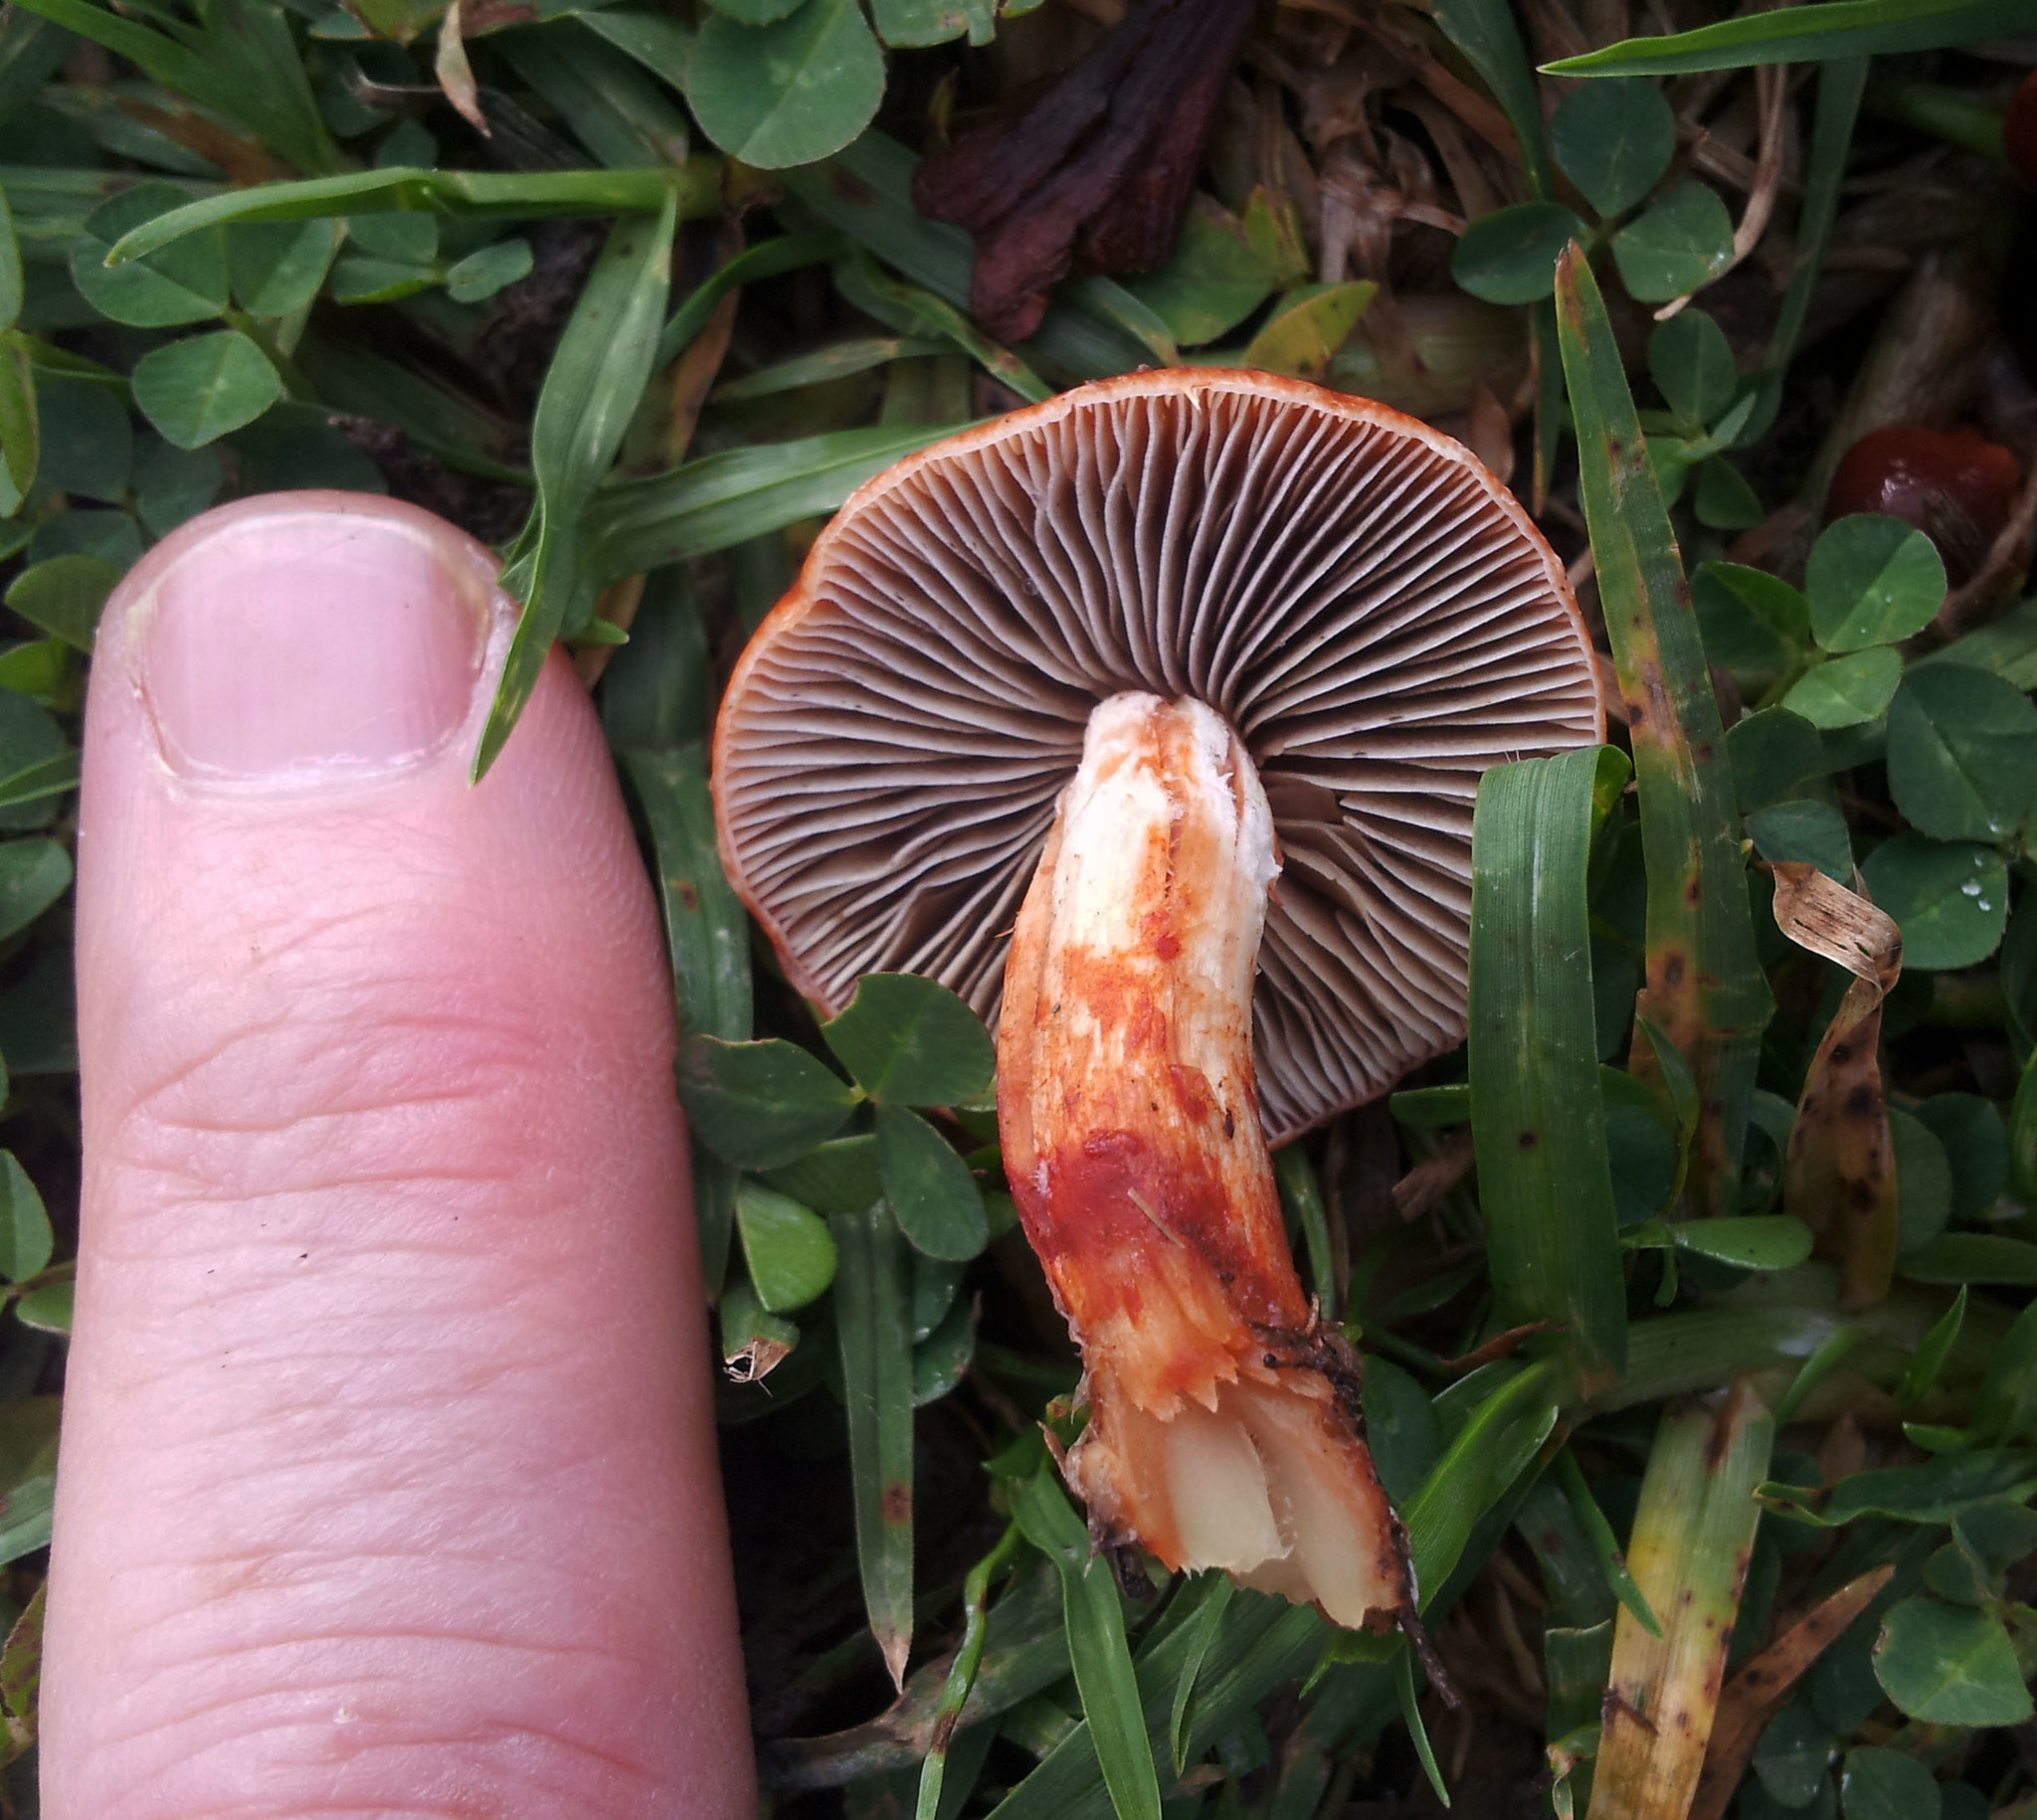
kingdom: Fungi
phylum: Basidiomycota
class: Agaricomycetes
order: Agaricales
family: Strophariaceae
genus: Leratiomyces
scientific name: Leratiomyces ceres
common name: Redlead roundhead
